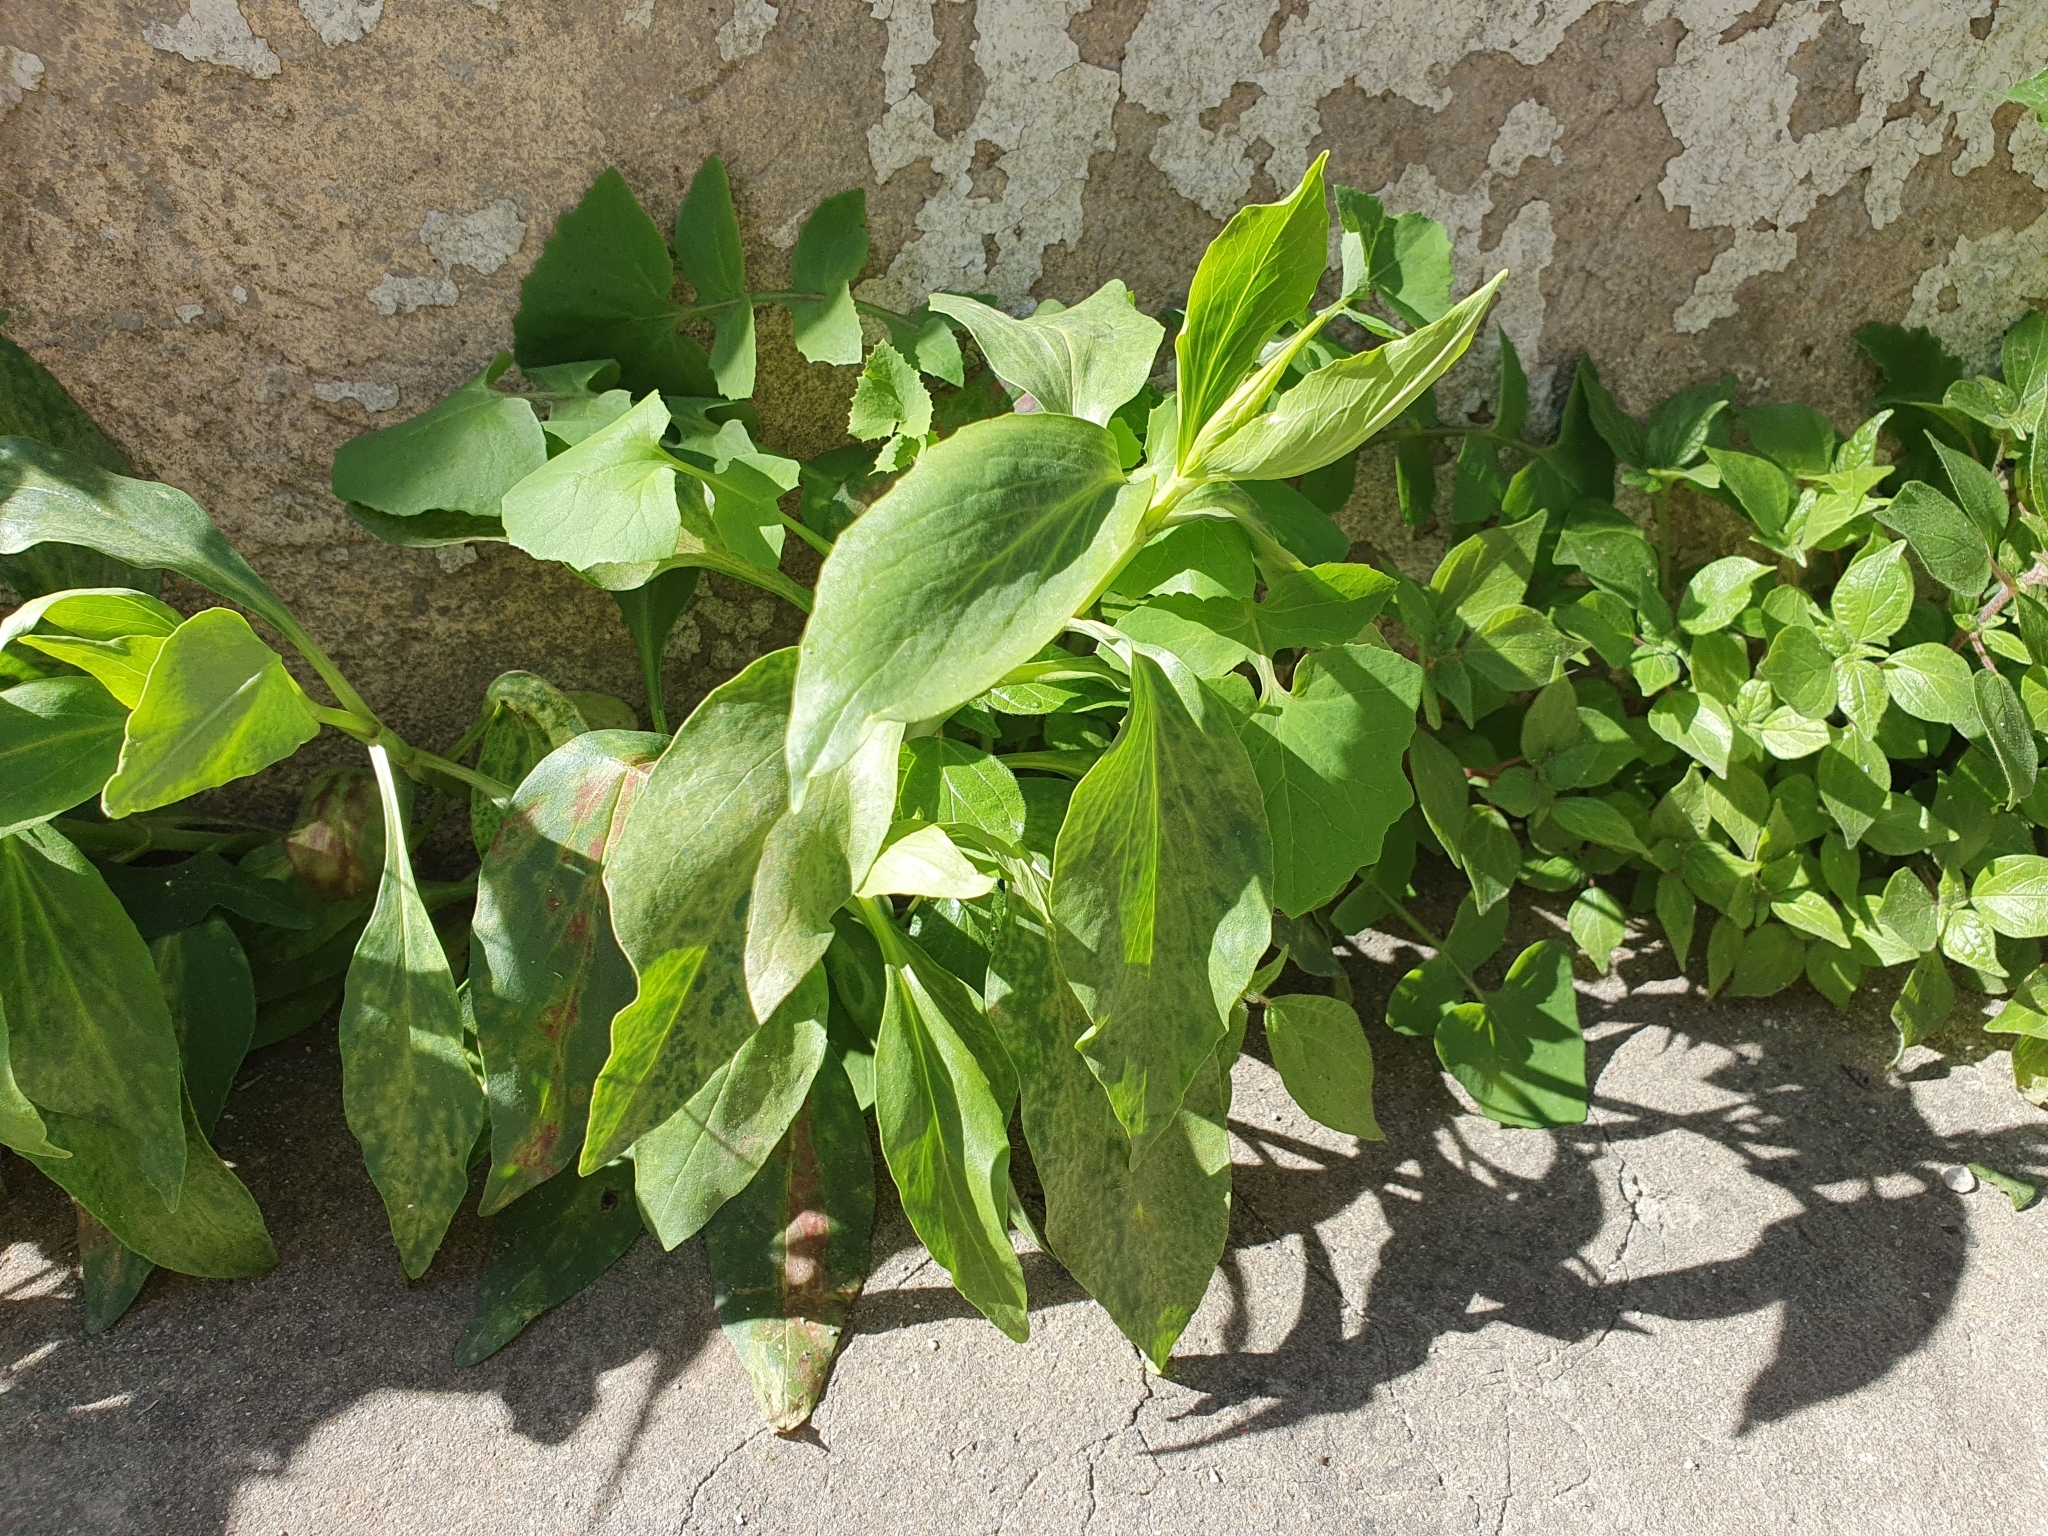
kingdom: Plantae
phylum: Tracheophyta
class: Magnoliopsida
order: Dipsacales
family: Caprifoliaceae
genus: Centranthus
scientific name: Centranthus ruber
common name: Red valerian
